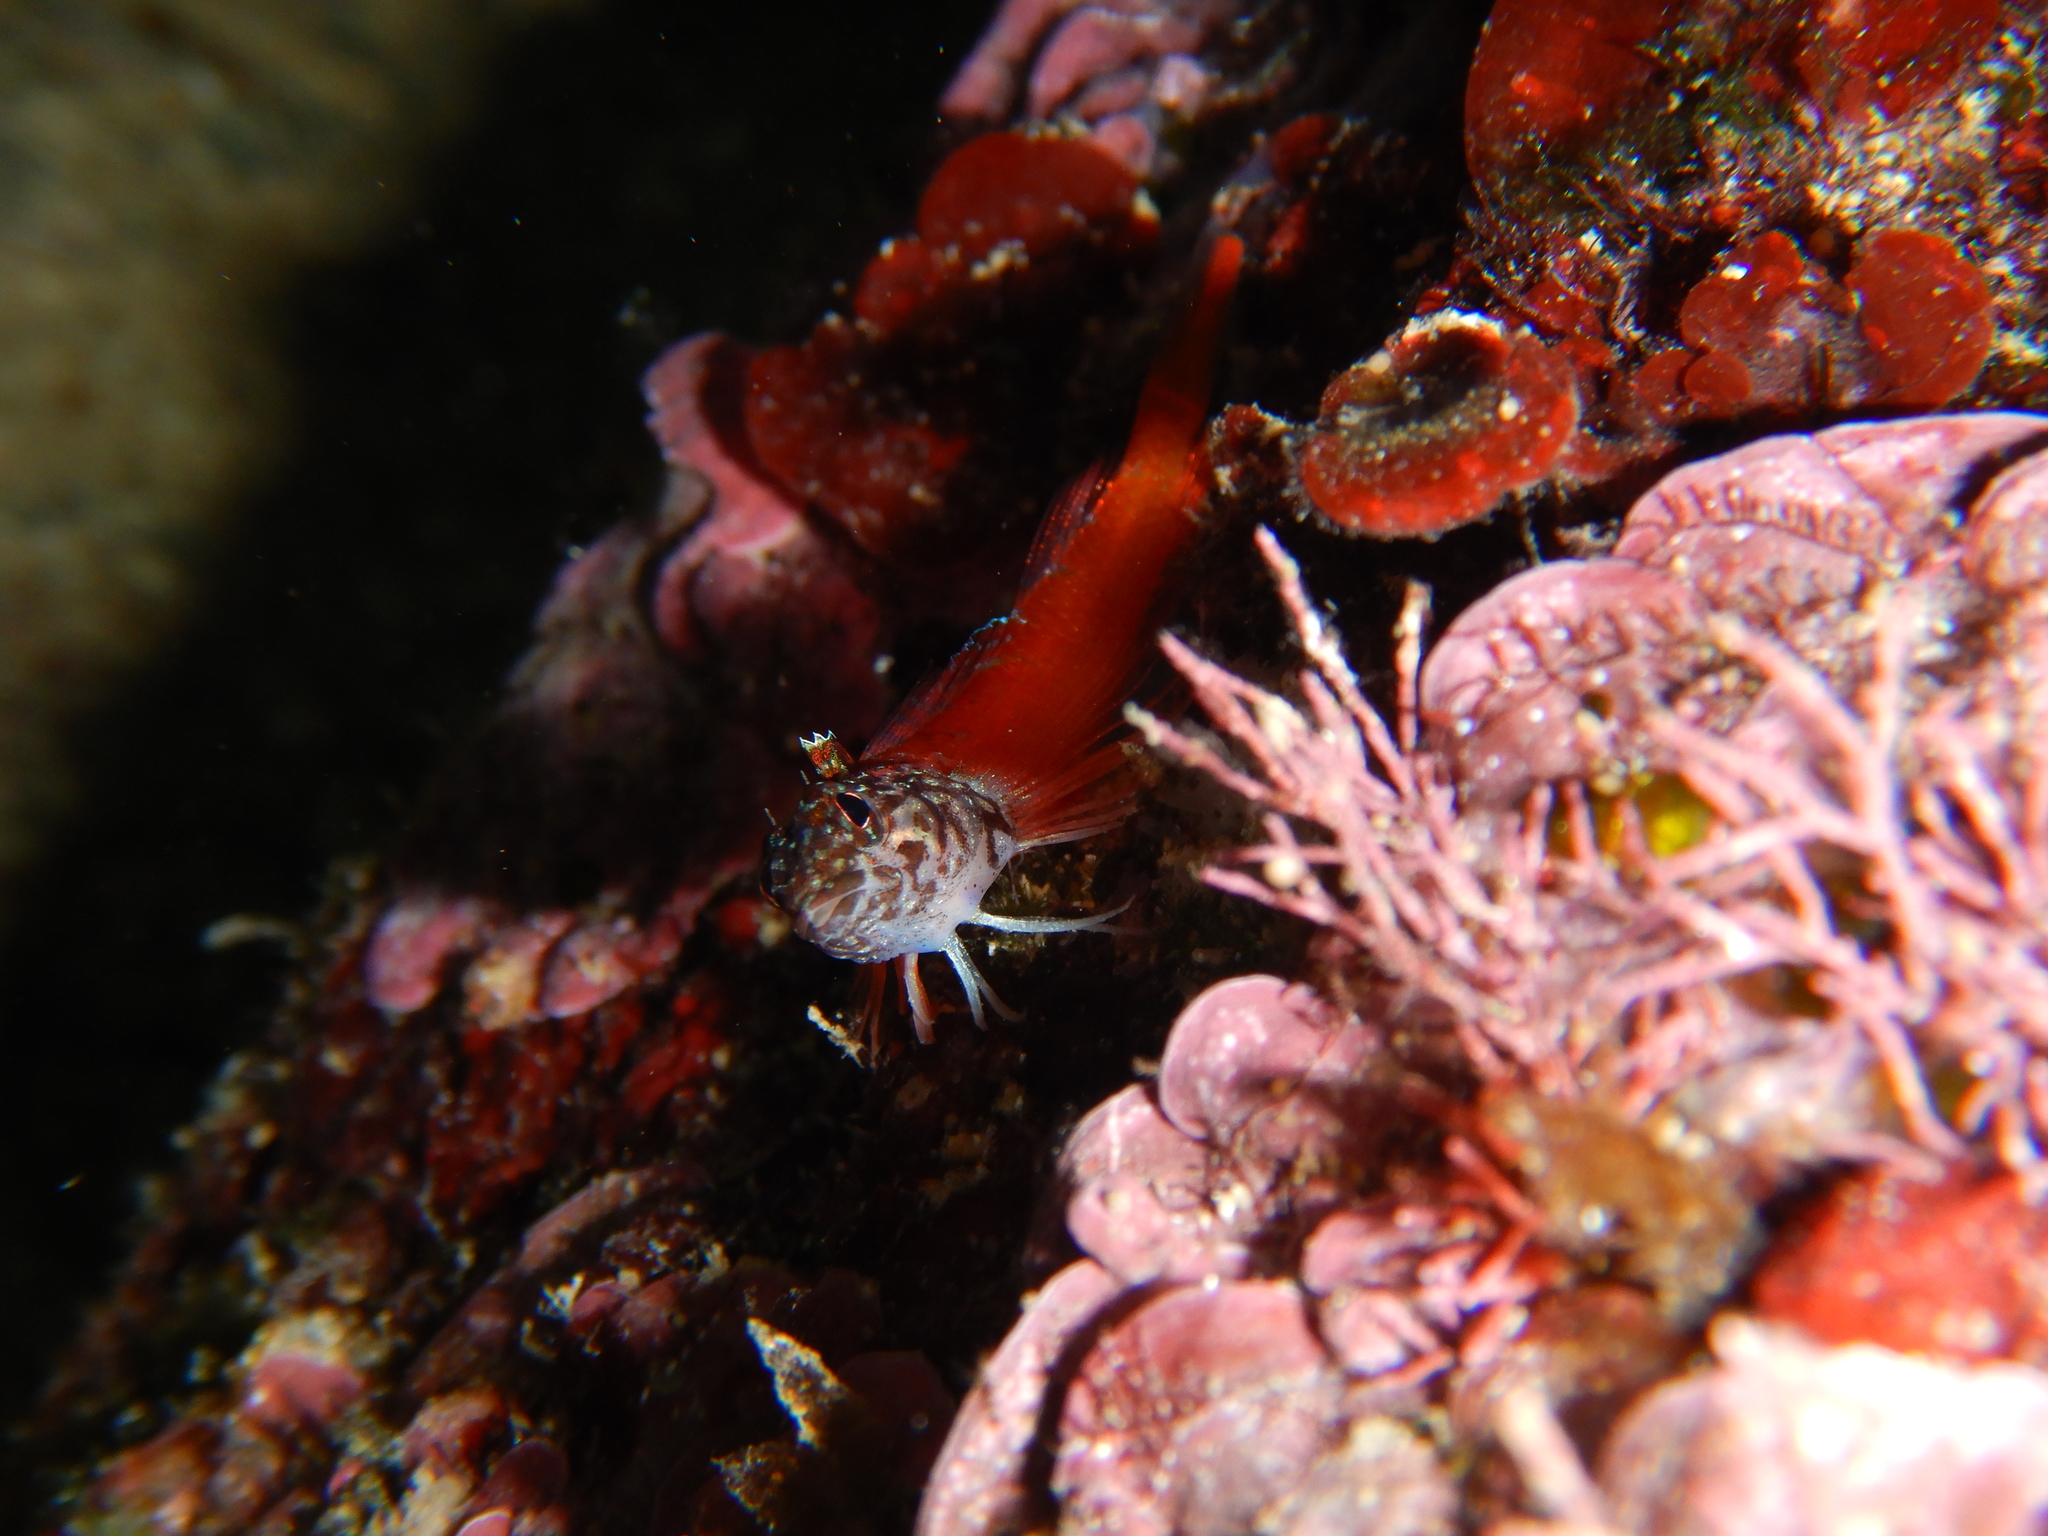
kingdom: Animalia
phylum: Chordata
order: Perciformes
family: Tripterygiidae
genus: Tripterygion
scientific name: Tripterygion melanurum
